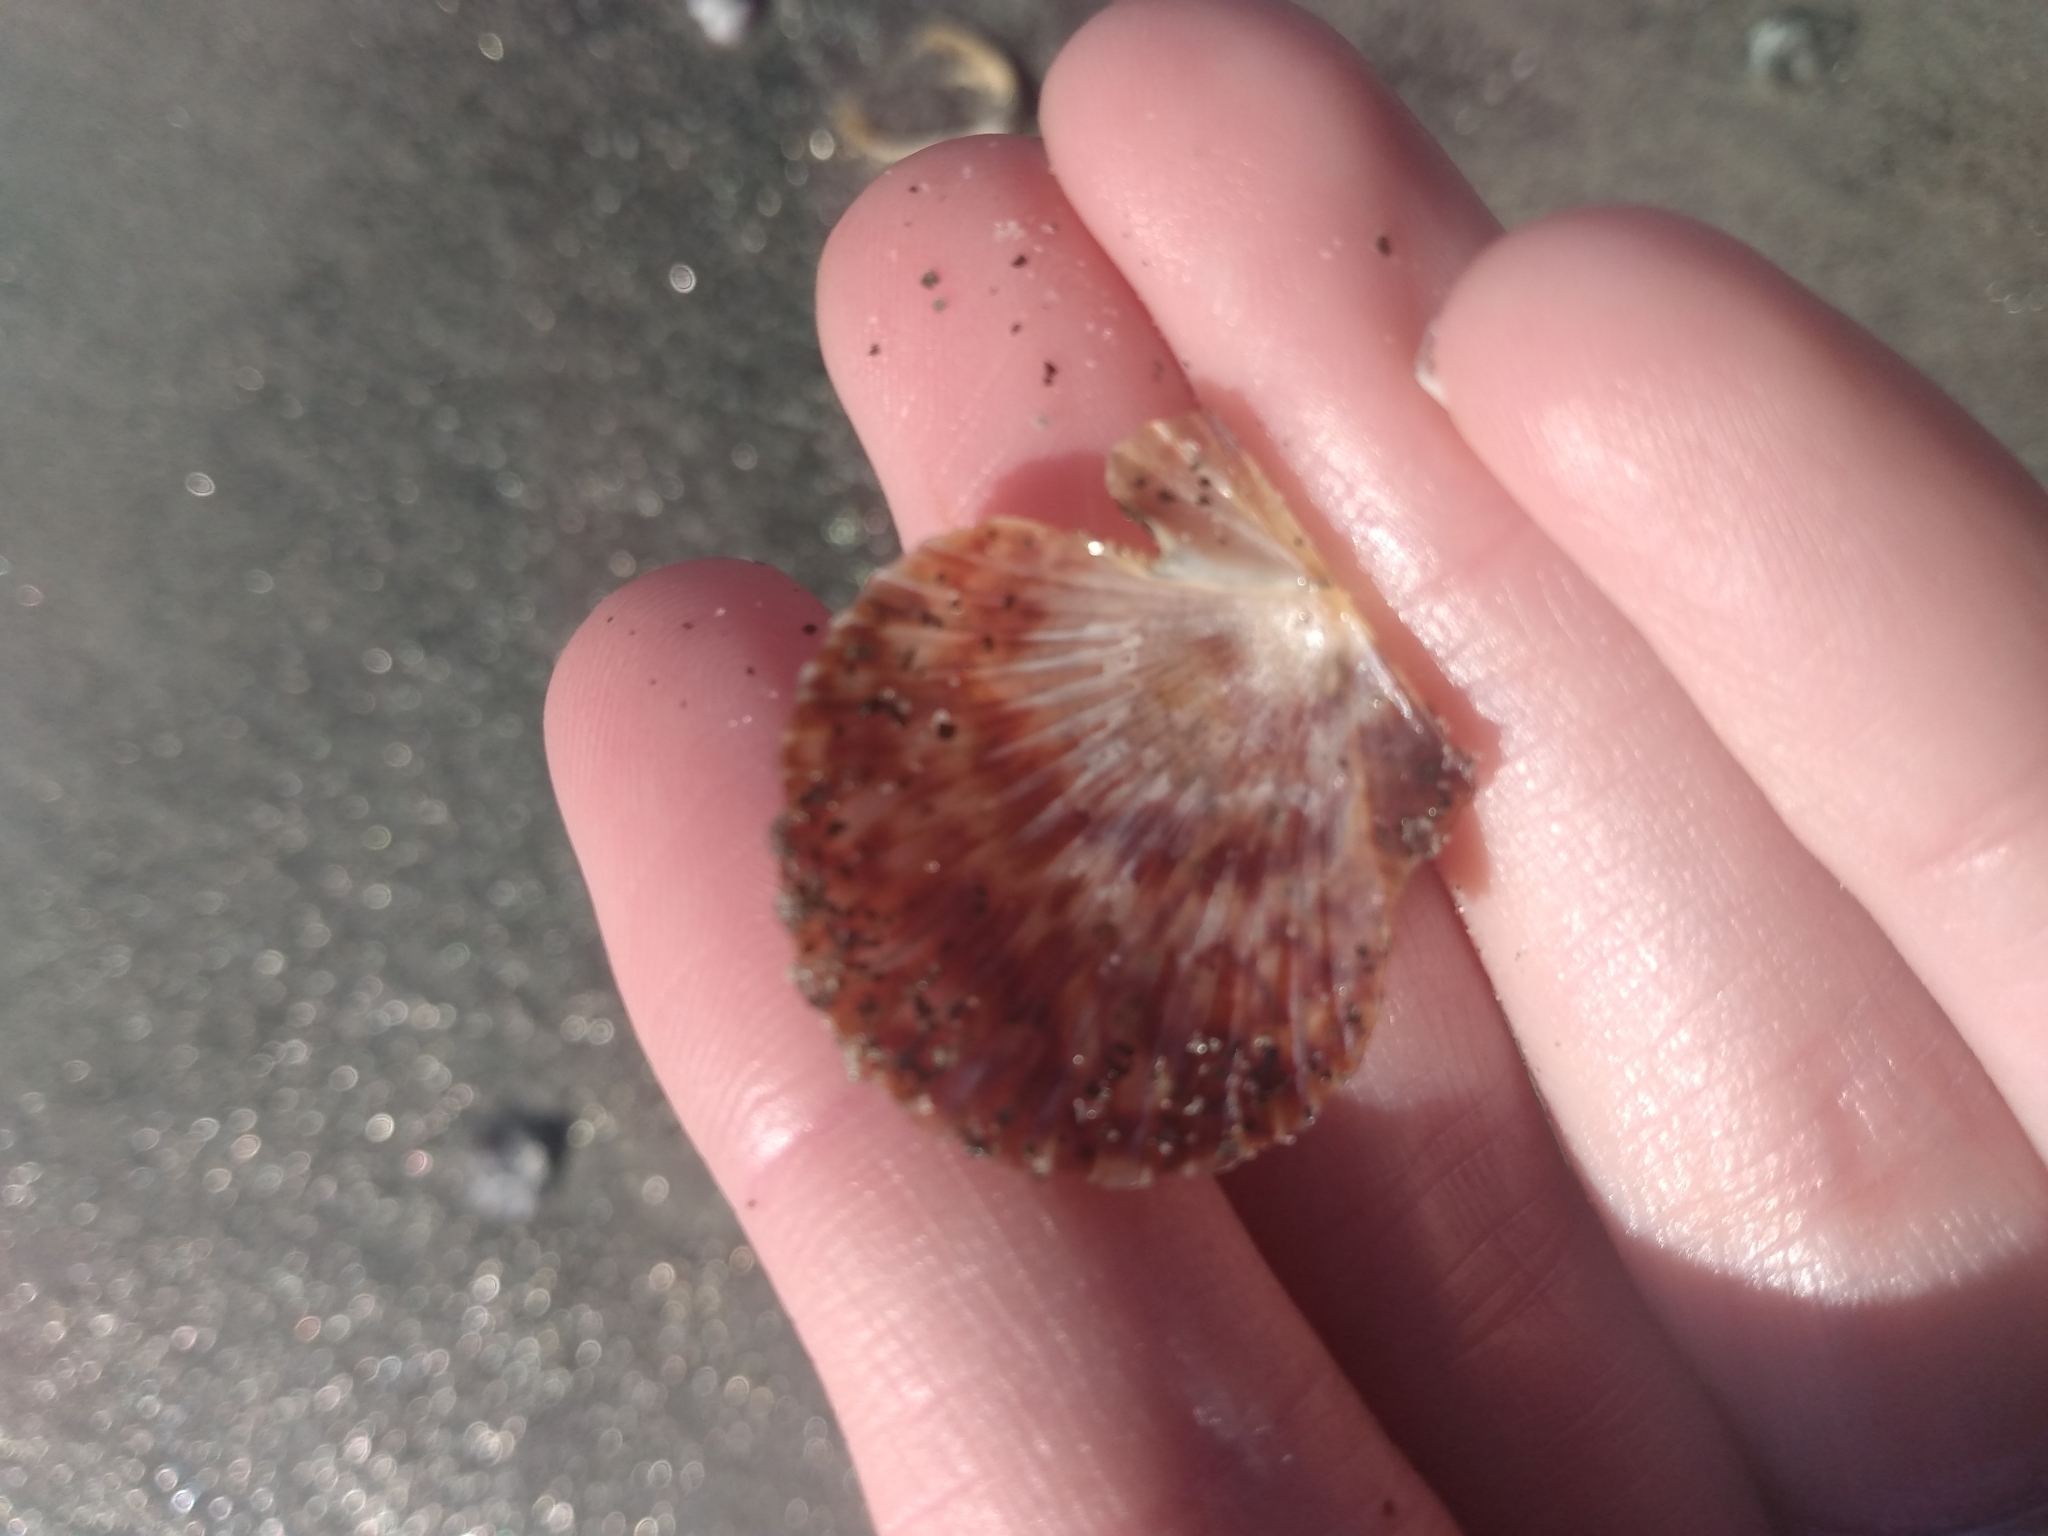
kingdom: Animalia
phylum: Mollusca
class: Bivalvia
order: Pectinida
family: Pectinidae
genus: Argopecten
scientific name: Argopecten ventricosus
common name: Catarina scallop
